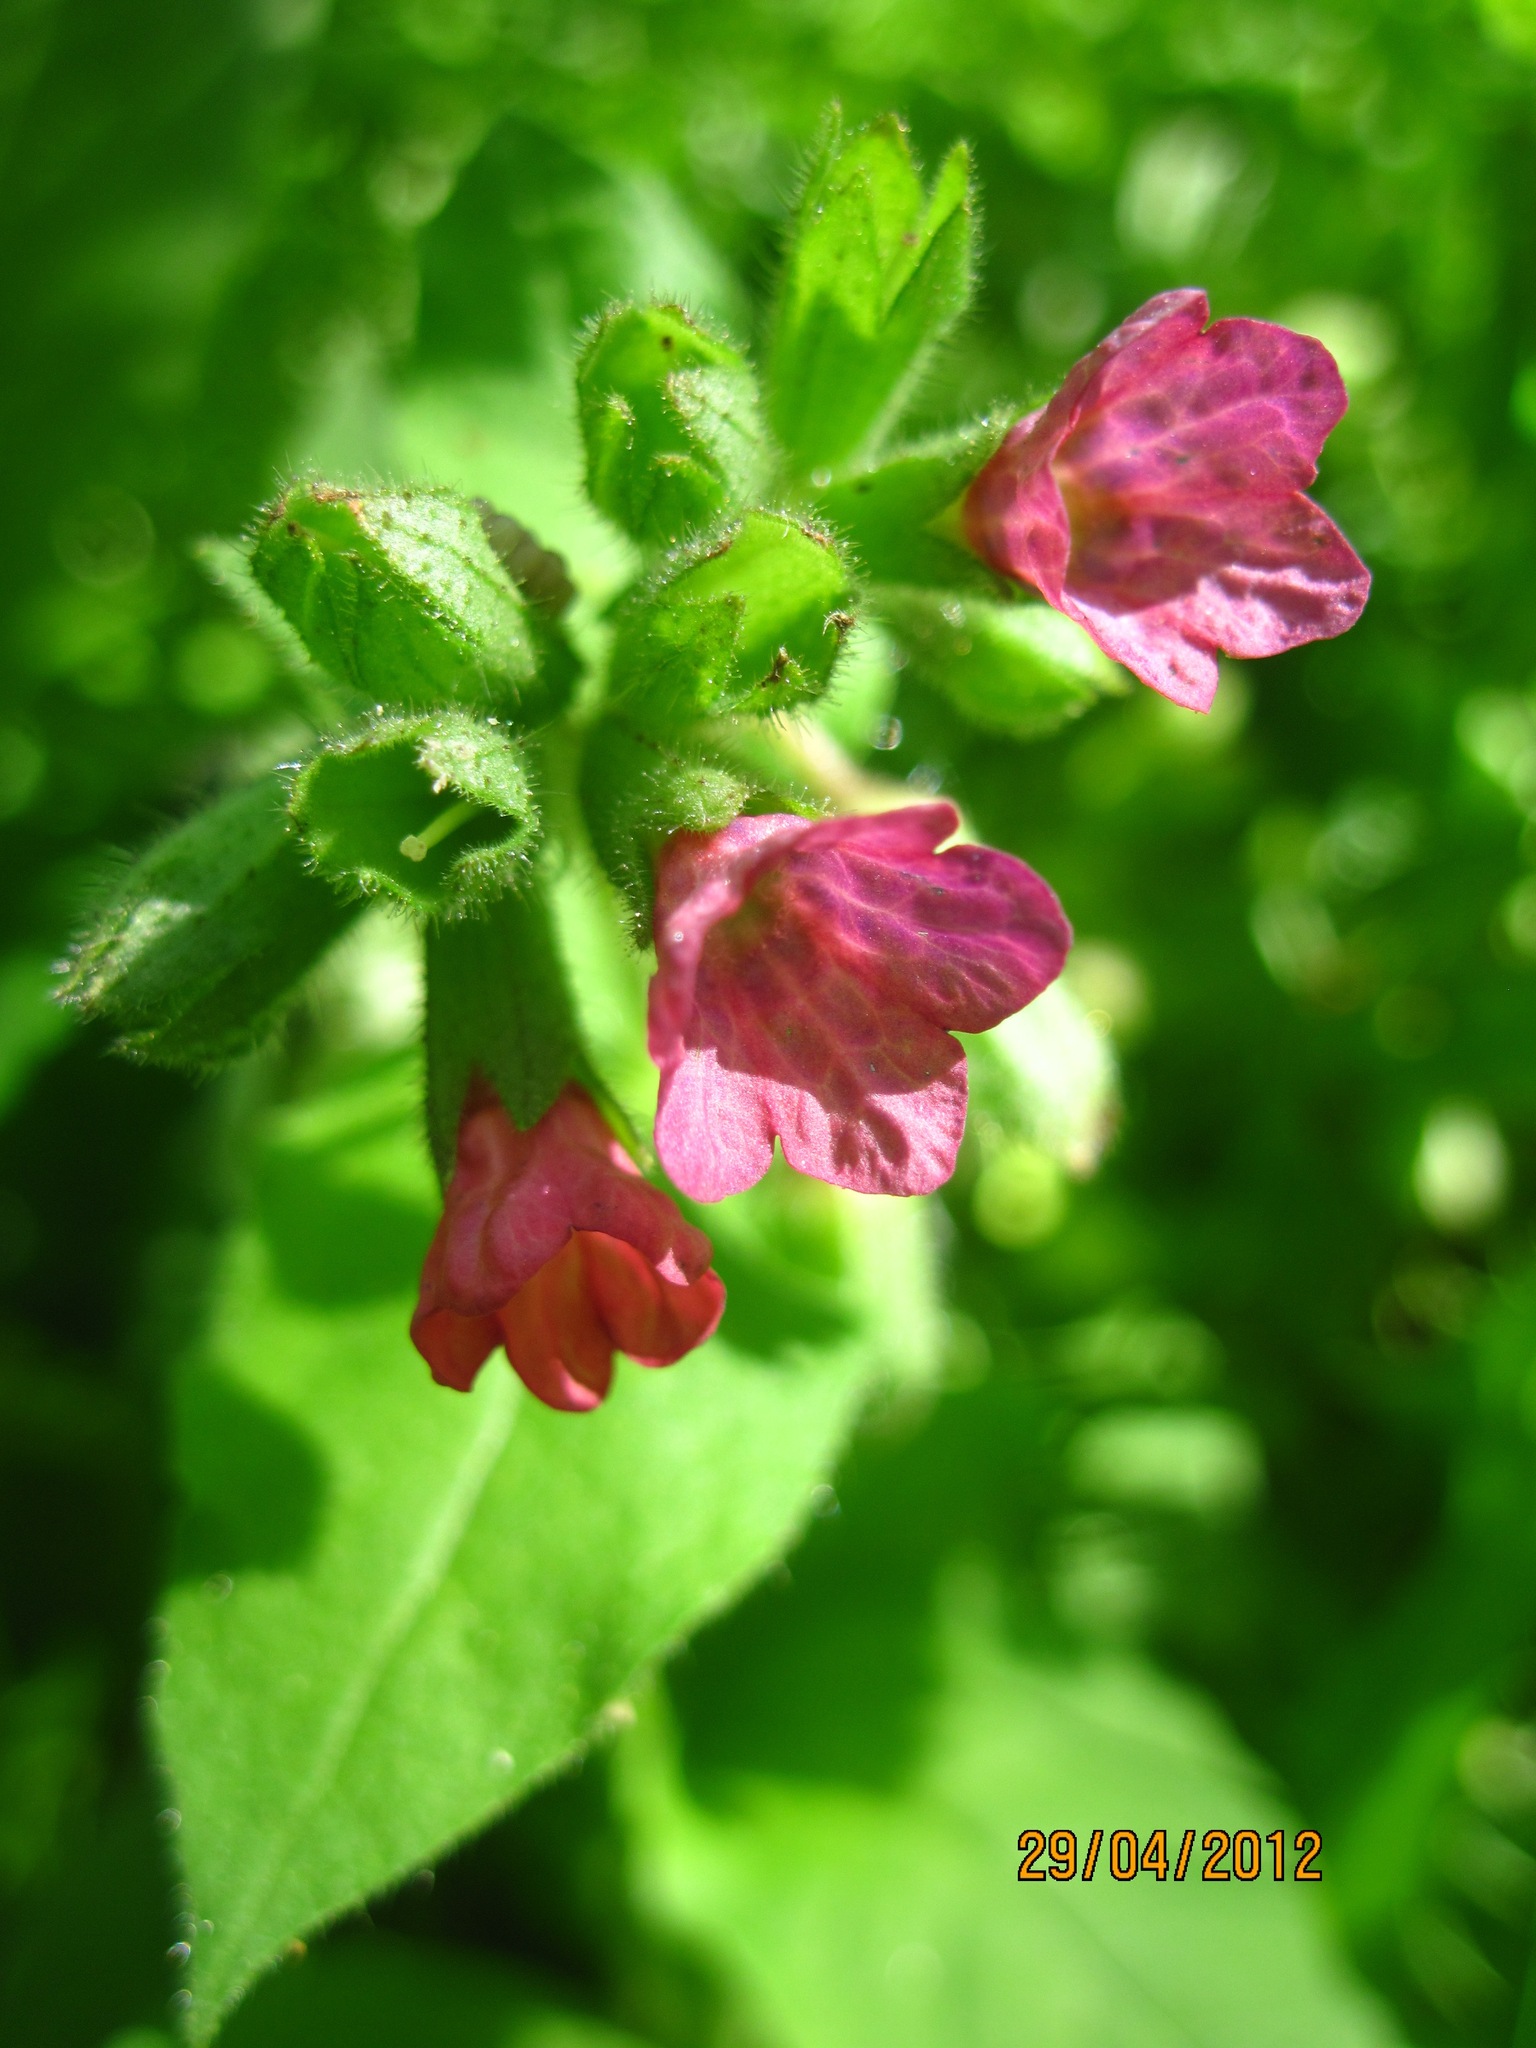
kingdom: Plantae
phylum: Tracheophyta
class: Magnoliopsida
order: Boraginales
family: Boraginaceae
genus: Pulmonaria
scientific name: Pulmonaria obscura
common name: Suffolk lungwort
